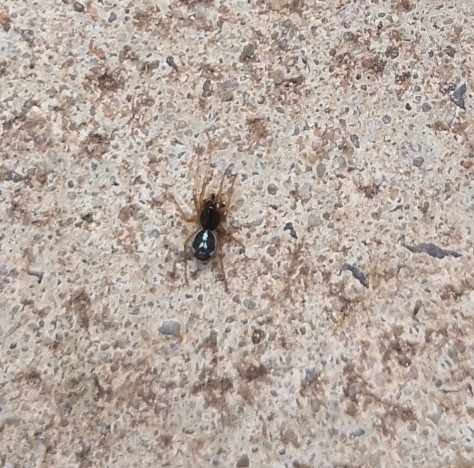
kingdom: Animalia
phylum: Arthropoda
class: Arachnida
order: Araneae
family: Tetragnathidae
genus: Pachygnatha
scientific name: Pachygnatha degeeri
